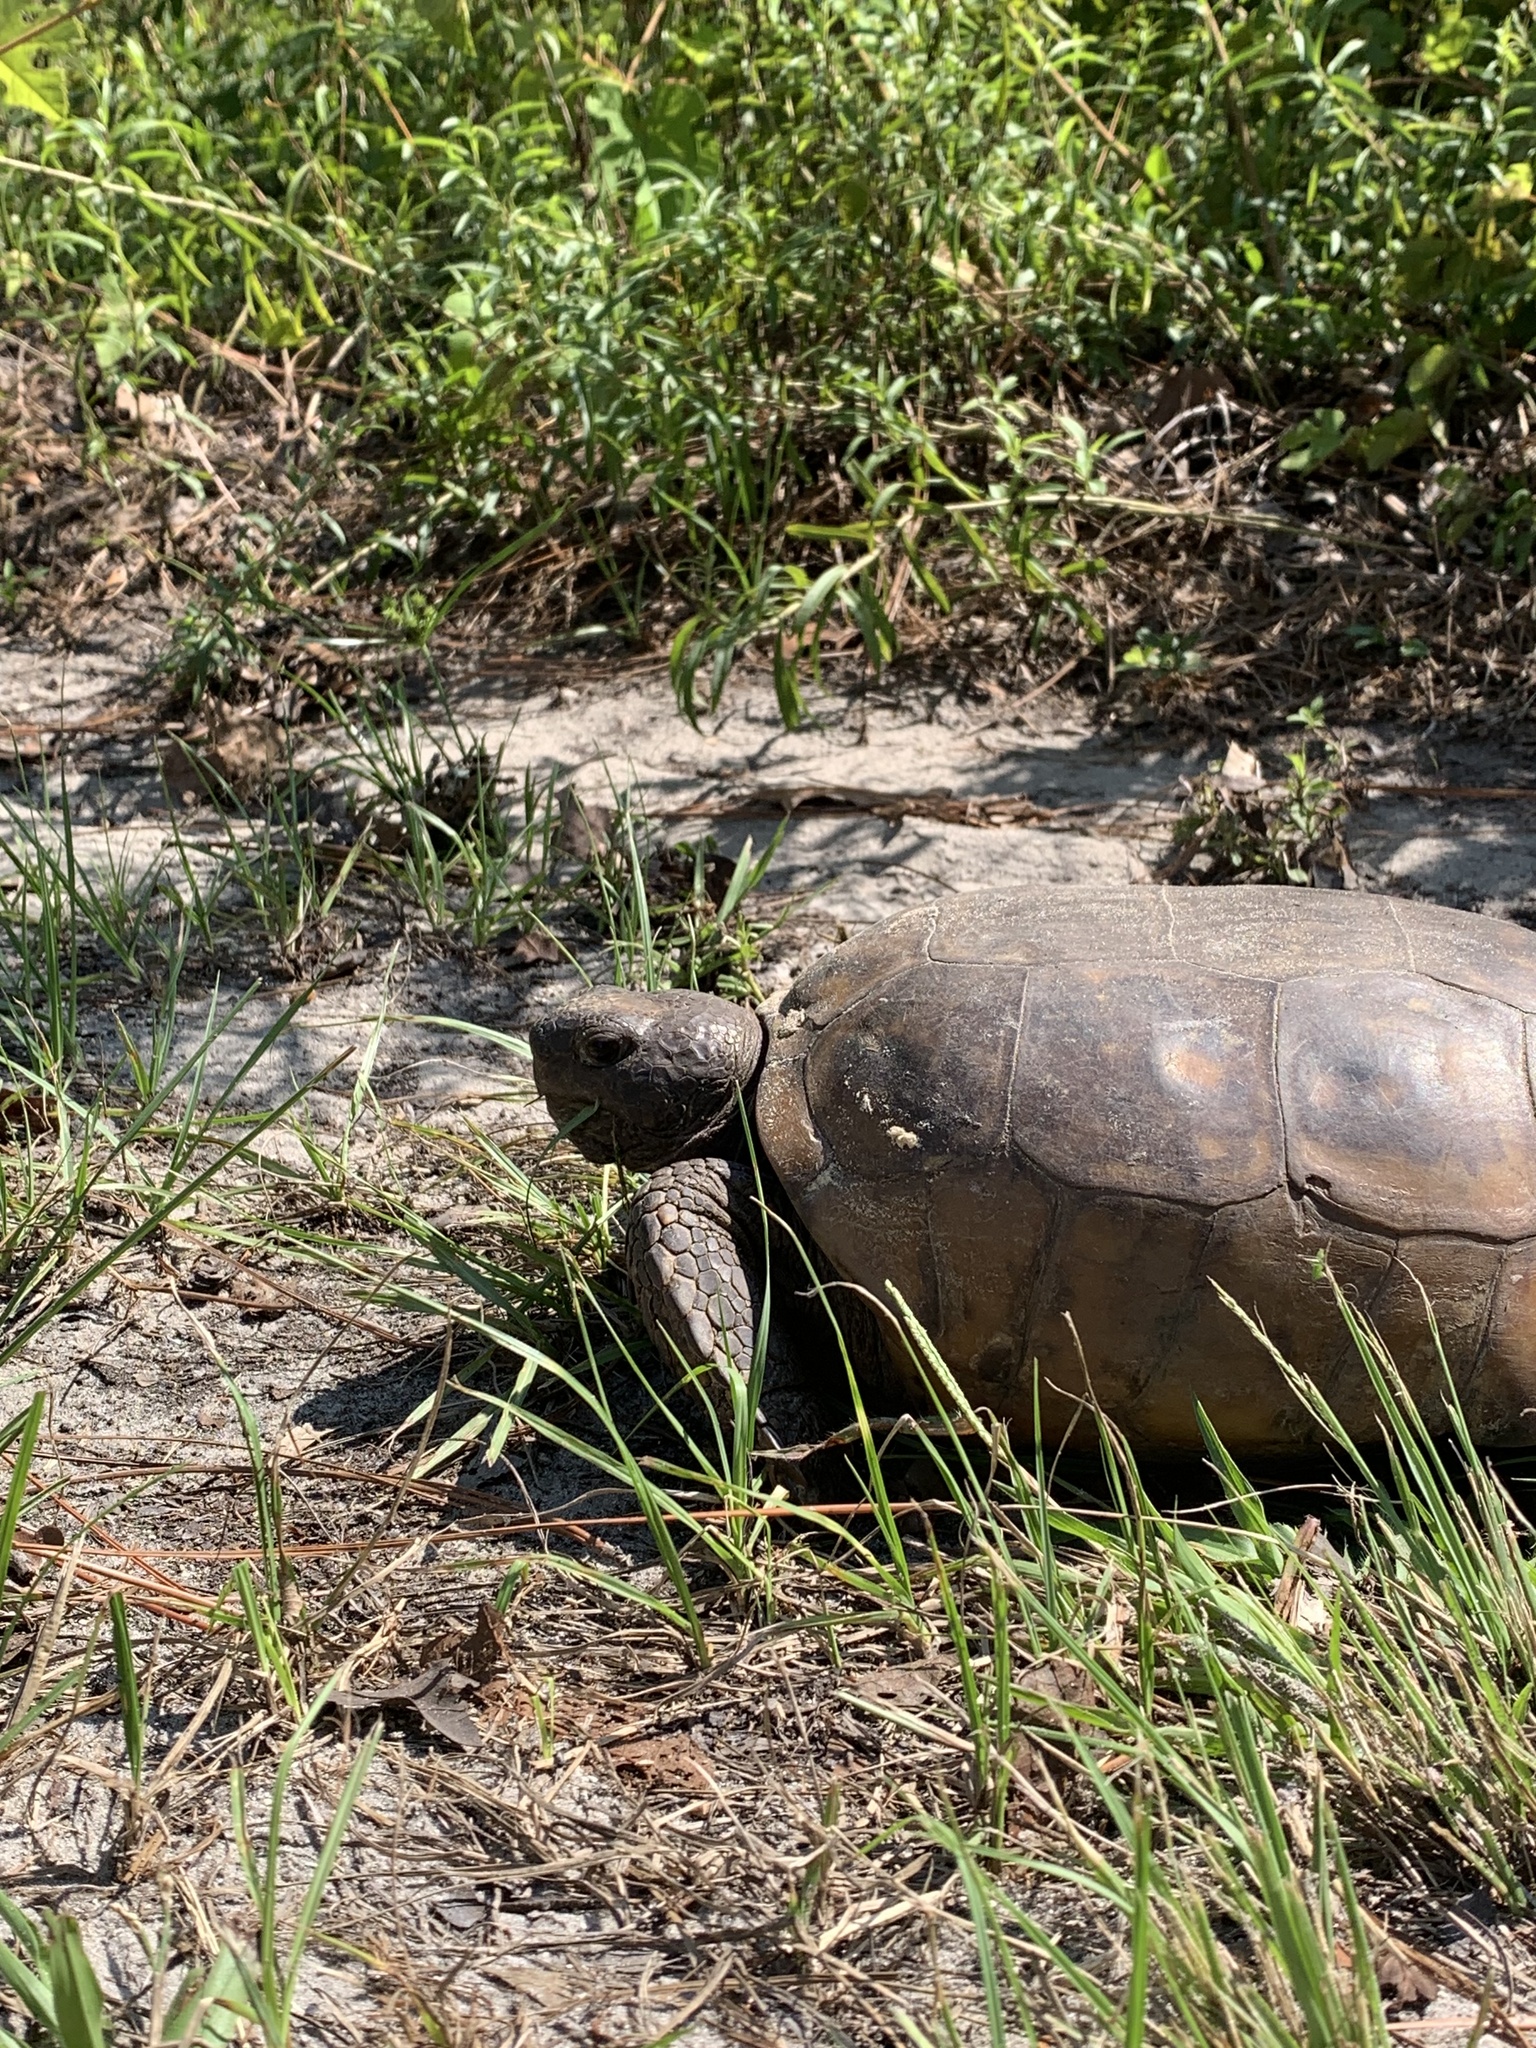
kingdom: Animalia
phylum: Chordata
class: Testudines
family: Testudinidae
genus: Gopherus
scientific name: Gopherus polyphemus
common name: Florida gopher tortoise
